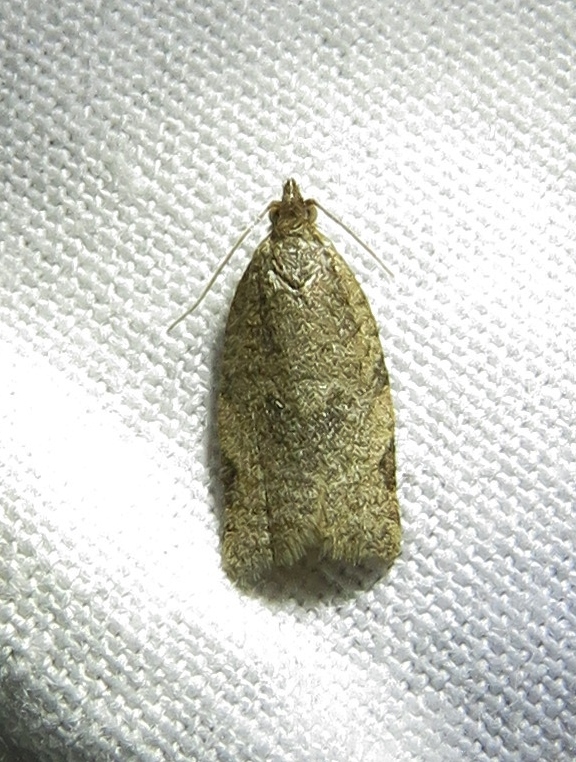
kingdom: Animalia
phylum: Arthropoda
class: Insecta
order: Lepidoptera
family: Tortricidae
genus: Clepsis
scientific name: Clepsis virescana
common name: Greenish apple moth
